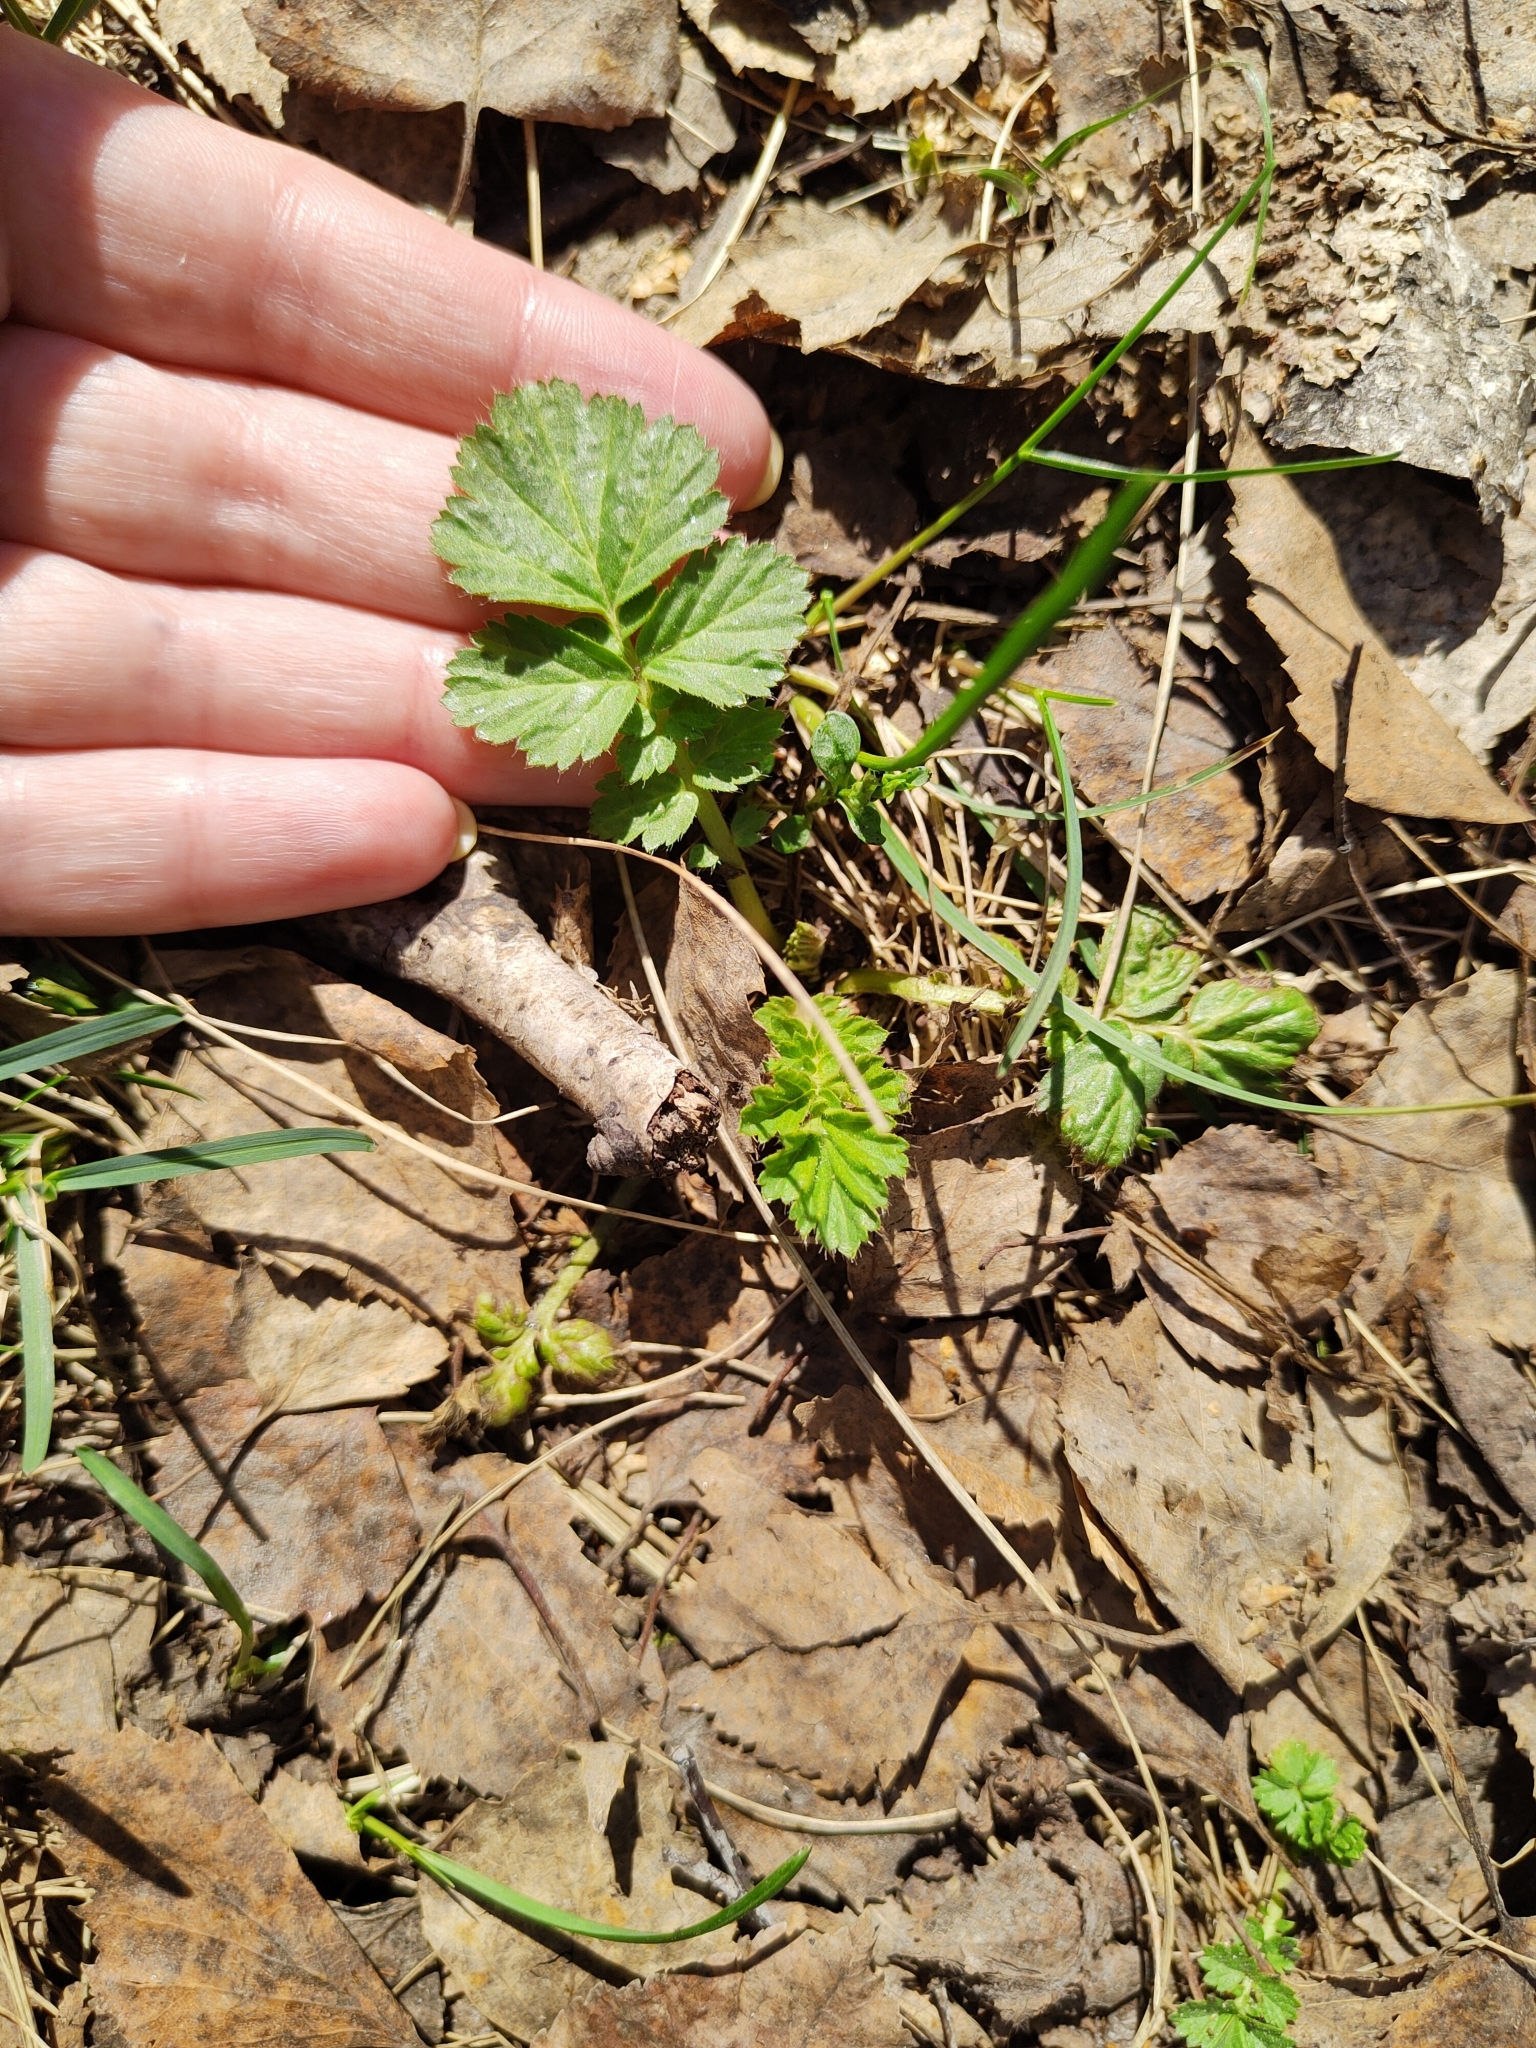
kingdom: Plantae
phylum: Tracheophyta
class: Magnoliopsida
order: Rosales
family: Rosaceae
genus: Geum
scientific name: Geum aleppicum
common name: Yellow avens
